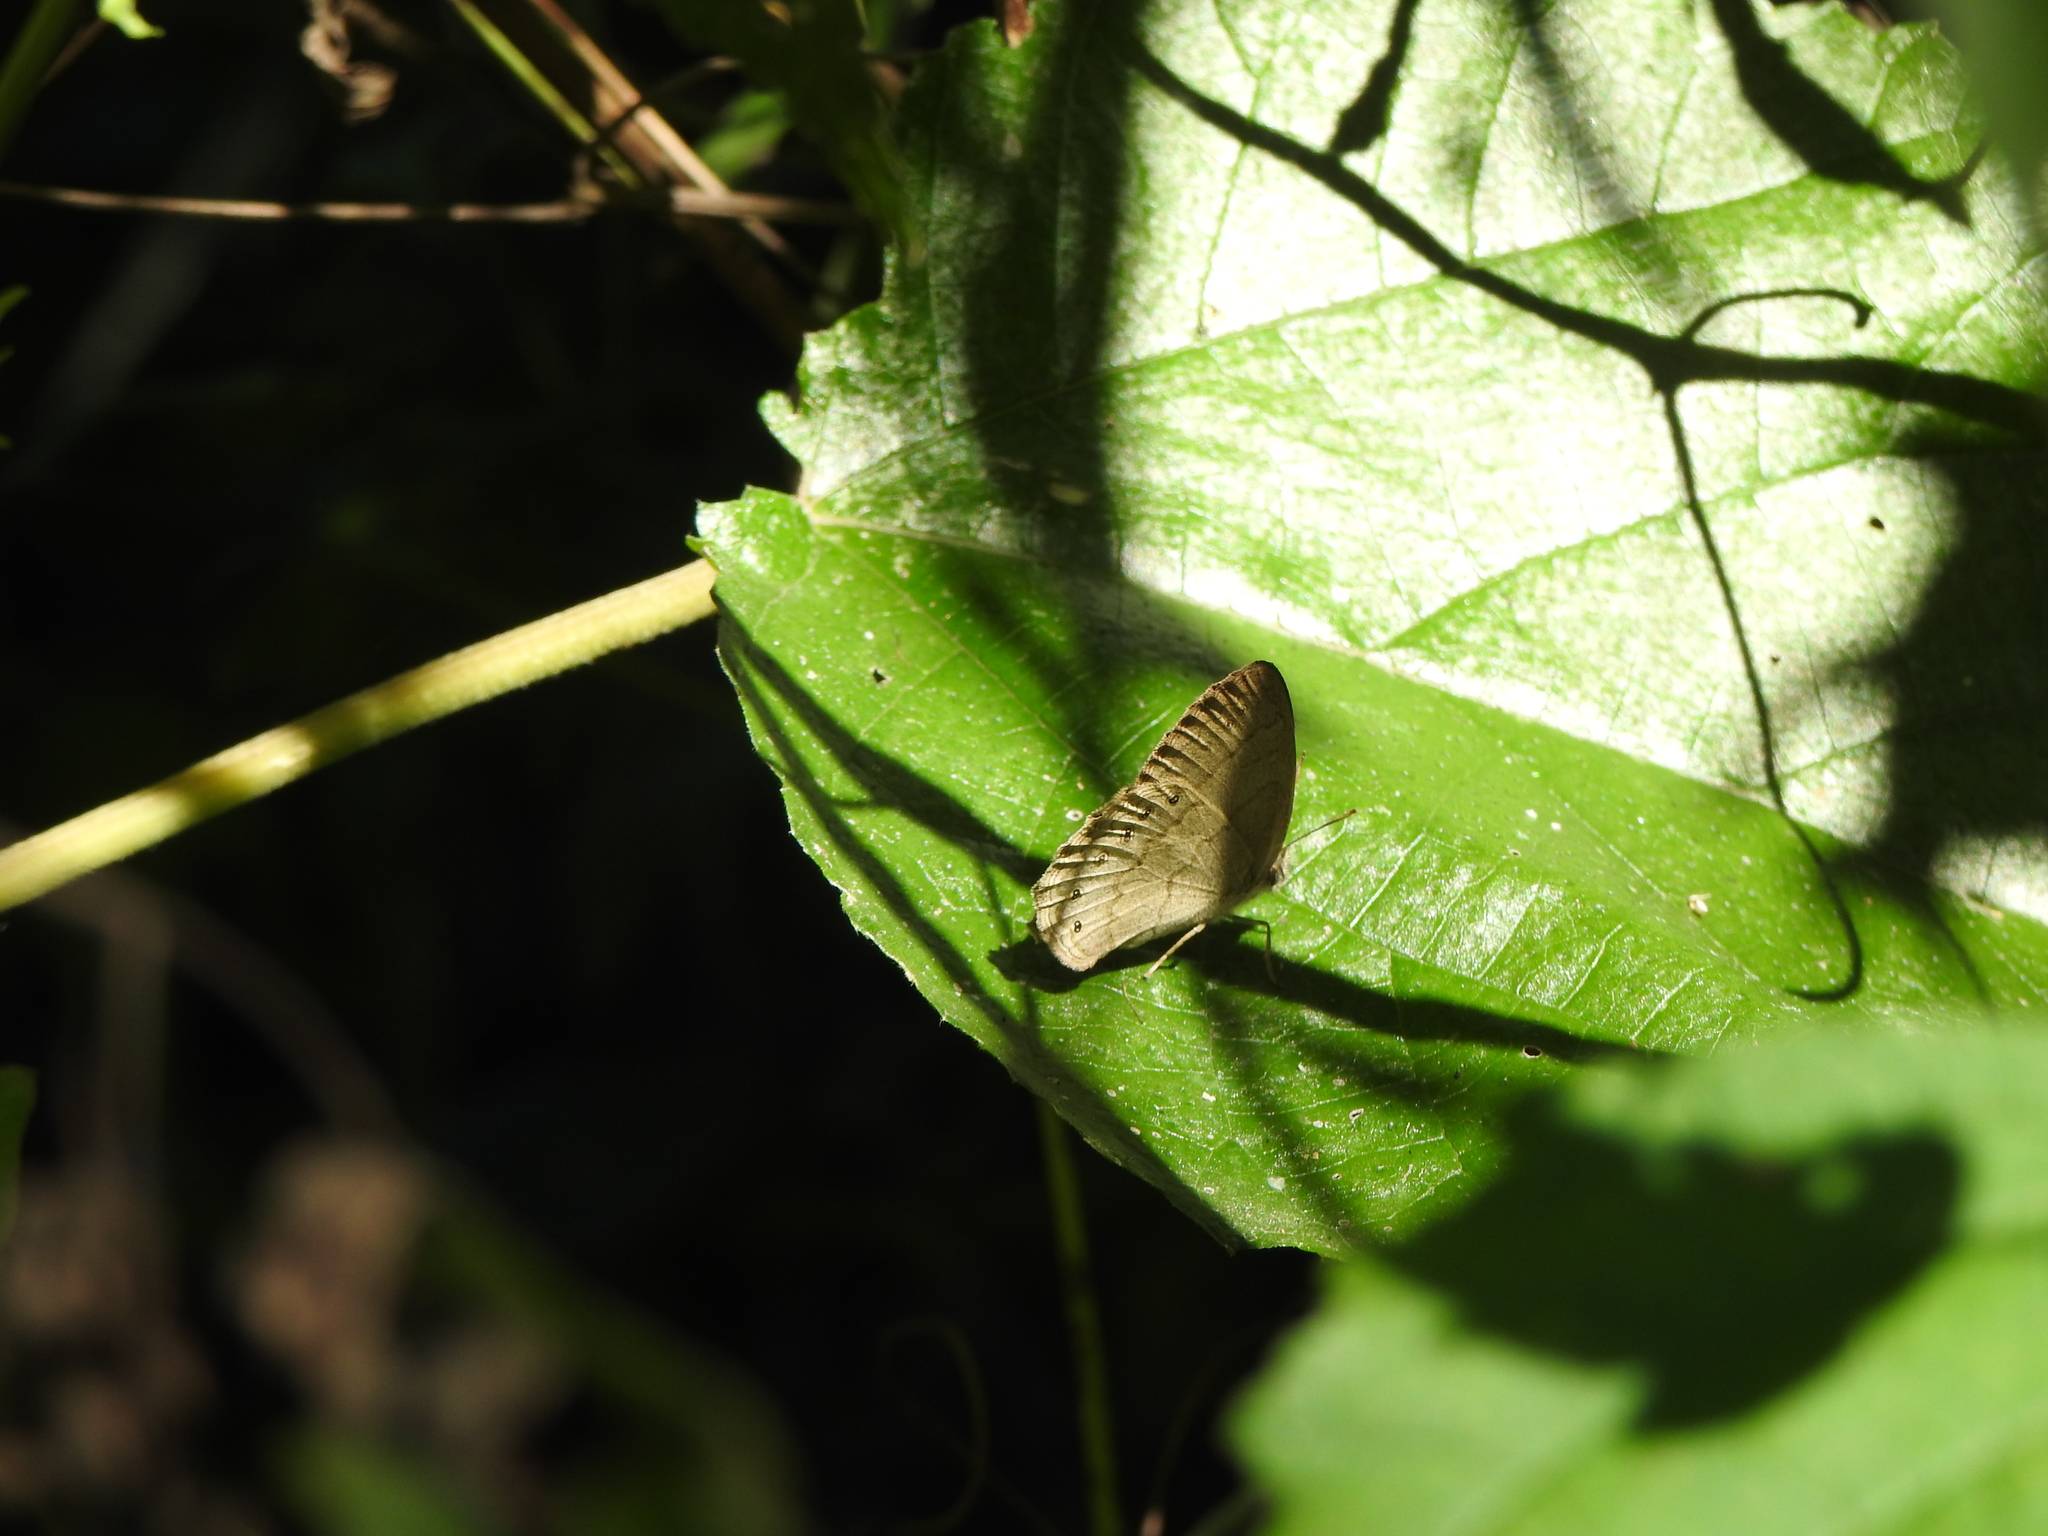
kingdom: Animalia
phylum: Arthropoda
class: Insecta
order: Lepidoptera
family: Nymphalidae
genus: Paryphthimoides
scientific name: Paryphthimoides poltys
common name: Poltys satyr
